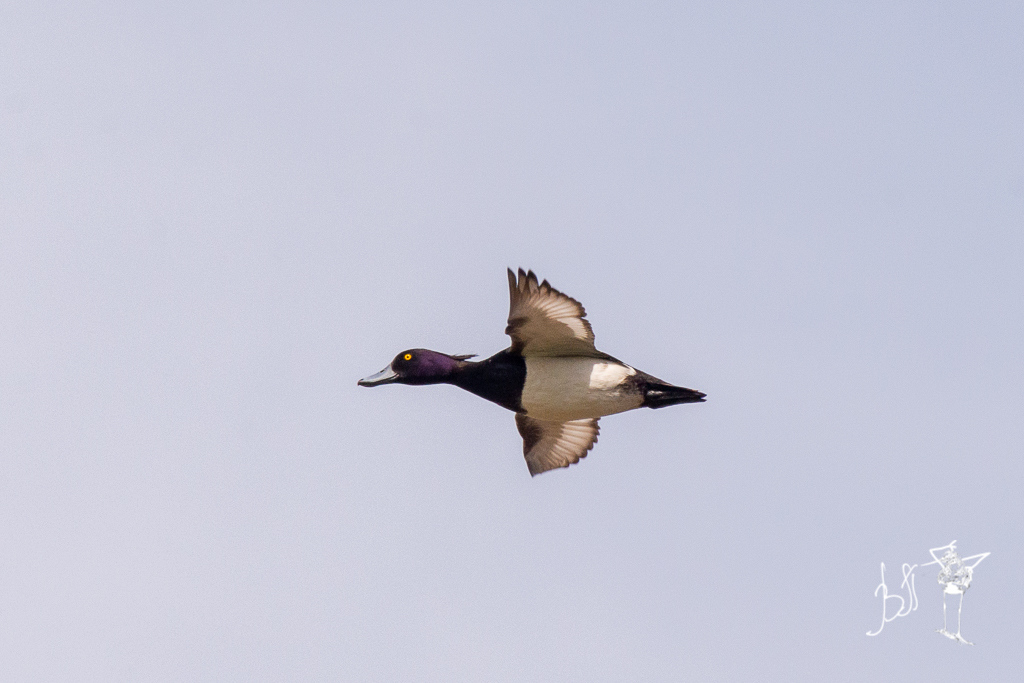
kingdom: Animalia
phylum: Chordata
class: Aves
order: Anseriformes
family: Anatidae
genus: Aythya
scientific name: Aythya fuligula
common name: Tufted duck
